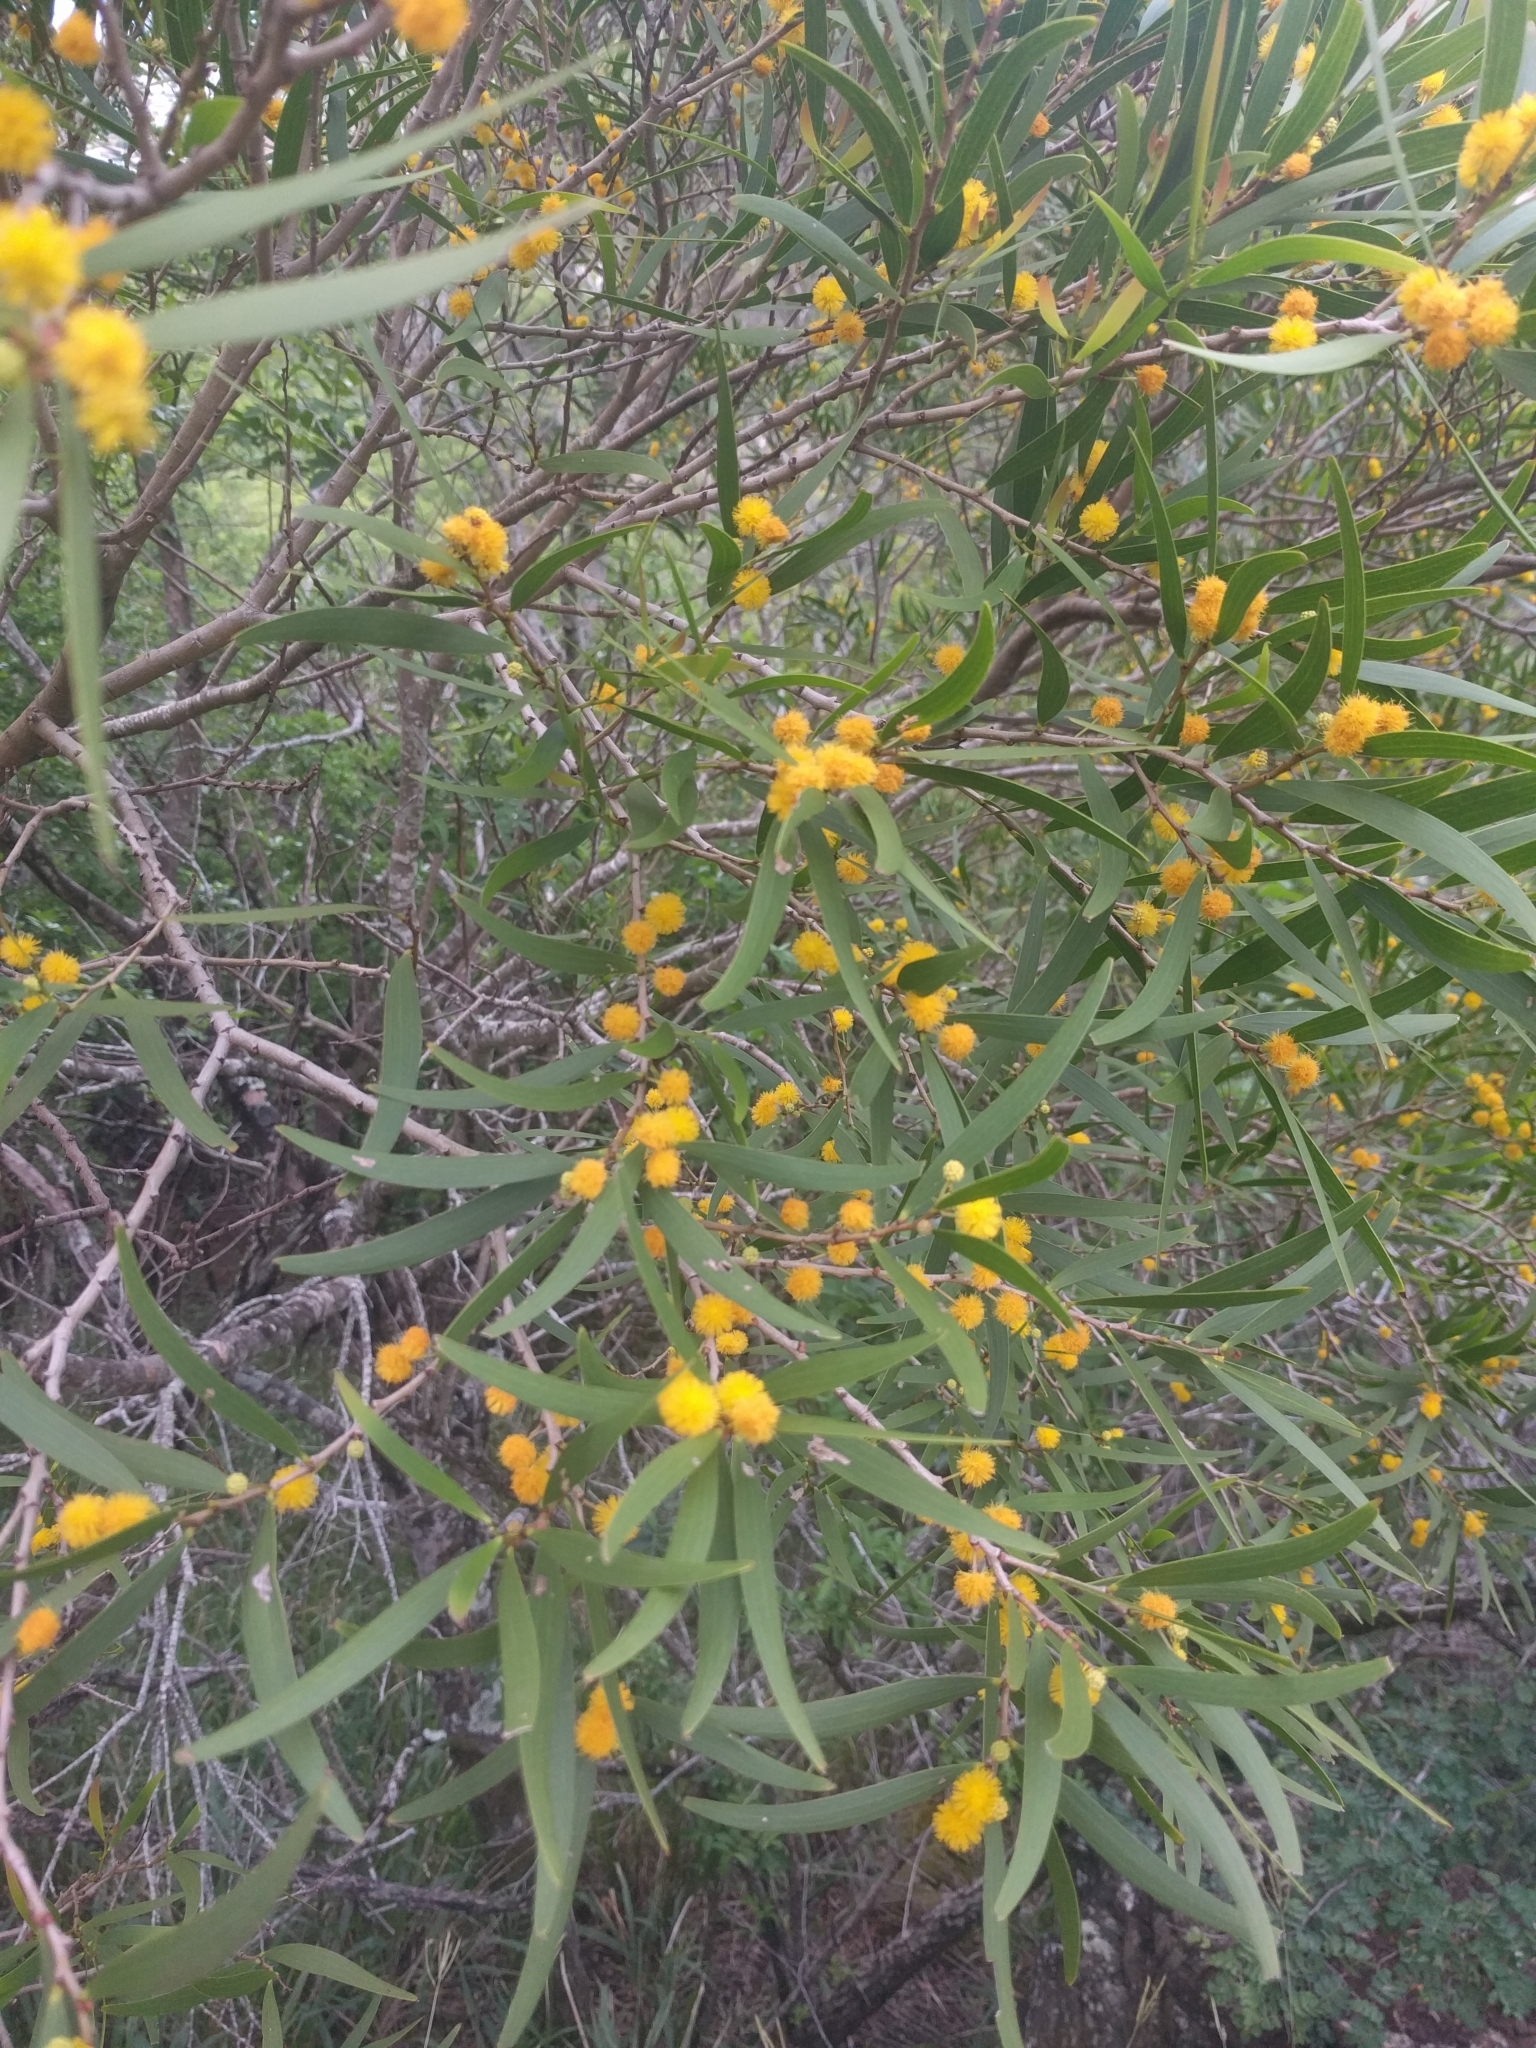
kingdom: Plantae
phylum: Tracheophyta
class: Magnoliopsida
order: Fabales
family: Fabaceae
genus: Acacia
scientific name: Acacia confusa
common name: Formosan koa
